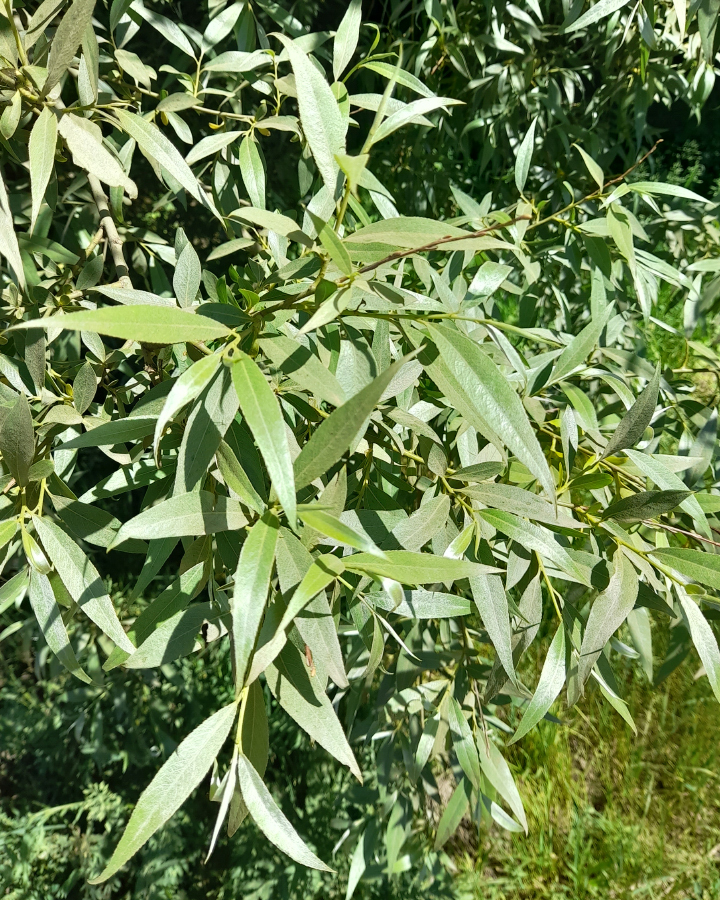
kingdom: Plantae
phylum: Tracheophyta
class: Magnoliopsida
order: Malpighiales
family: Salicaceae
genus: Salix
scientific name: Salix alba
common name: White willow
